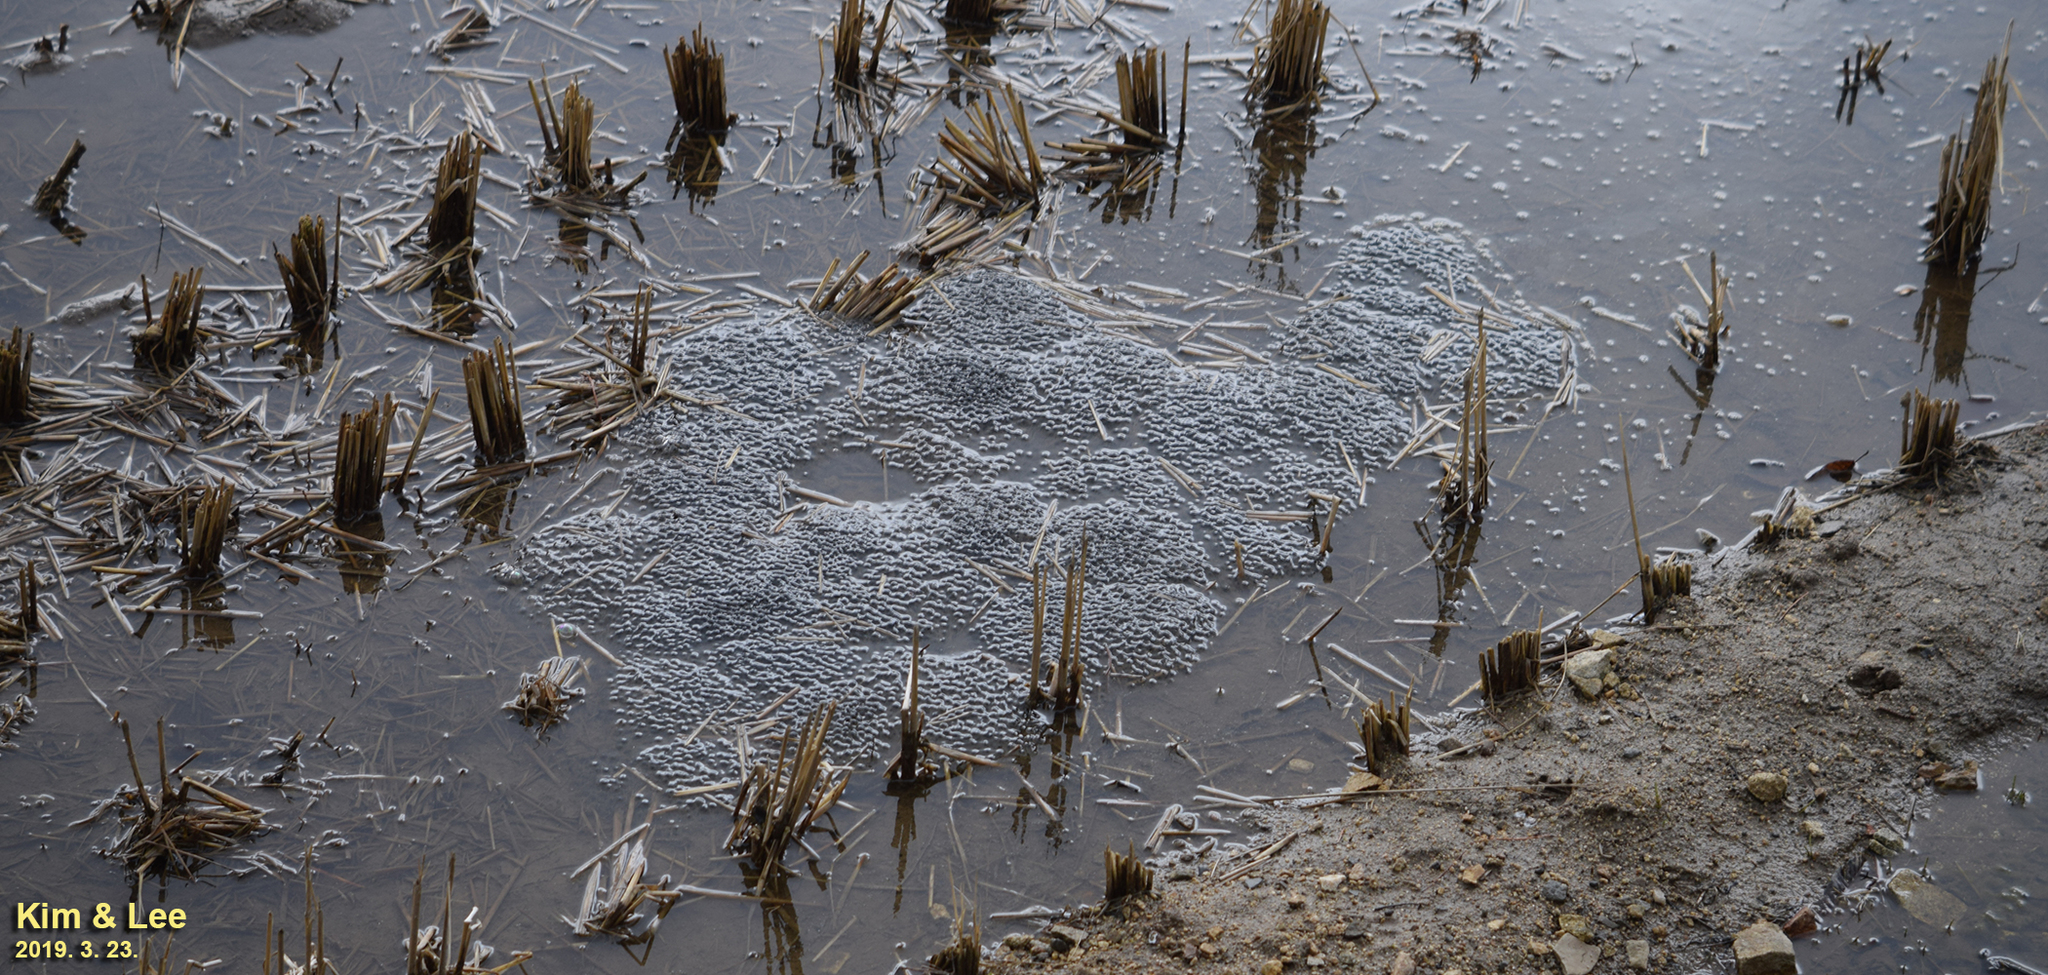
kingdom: Animalia
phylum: Chordata
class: Amphibia
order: Anura
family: Ranidae
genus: Rana
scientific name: Rana uenoi
